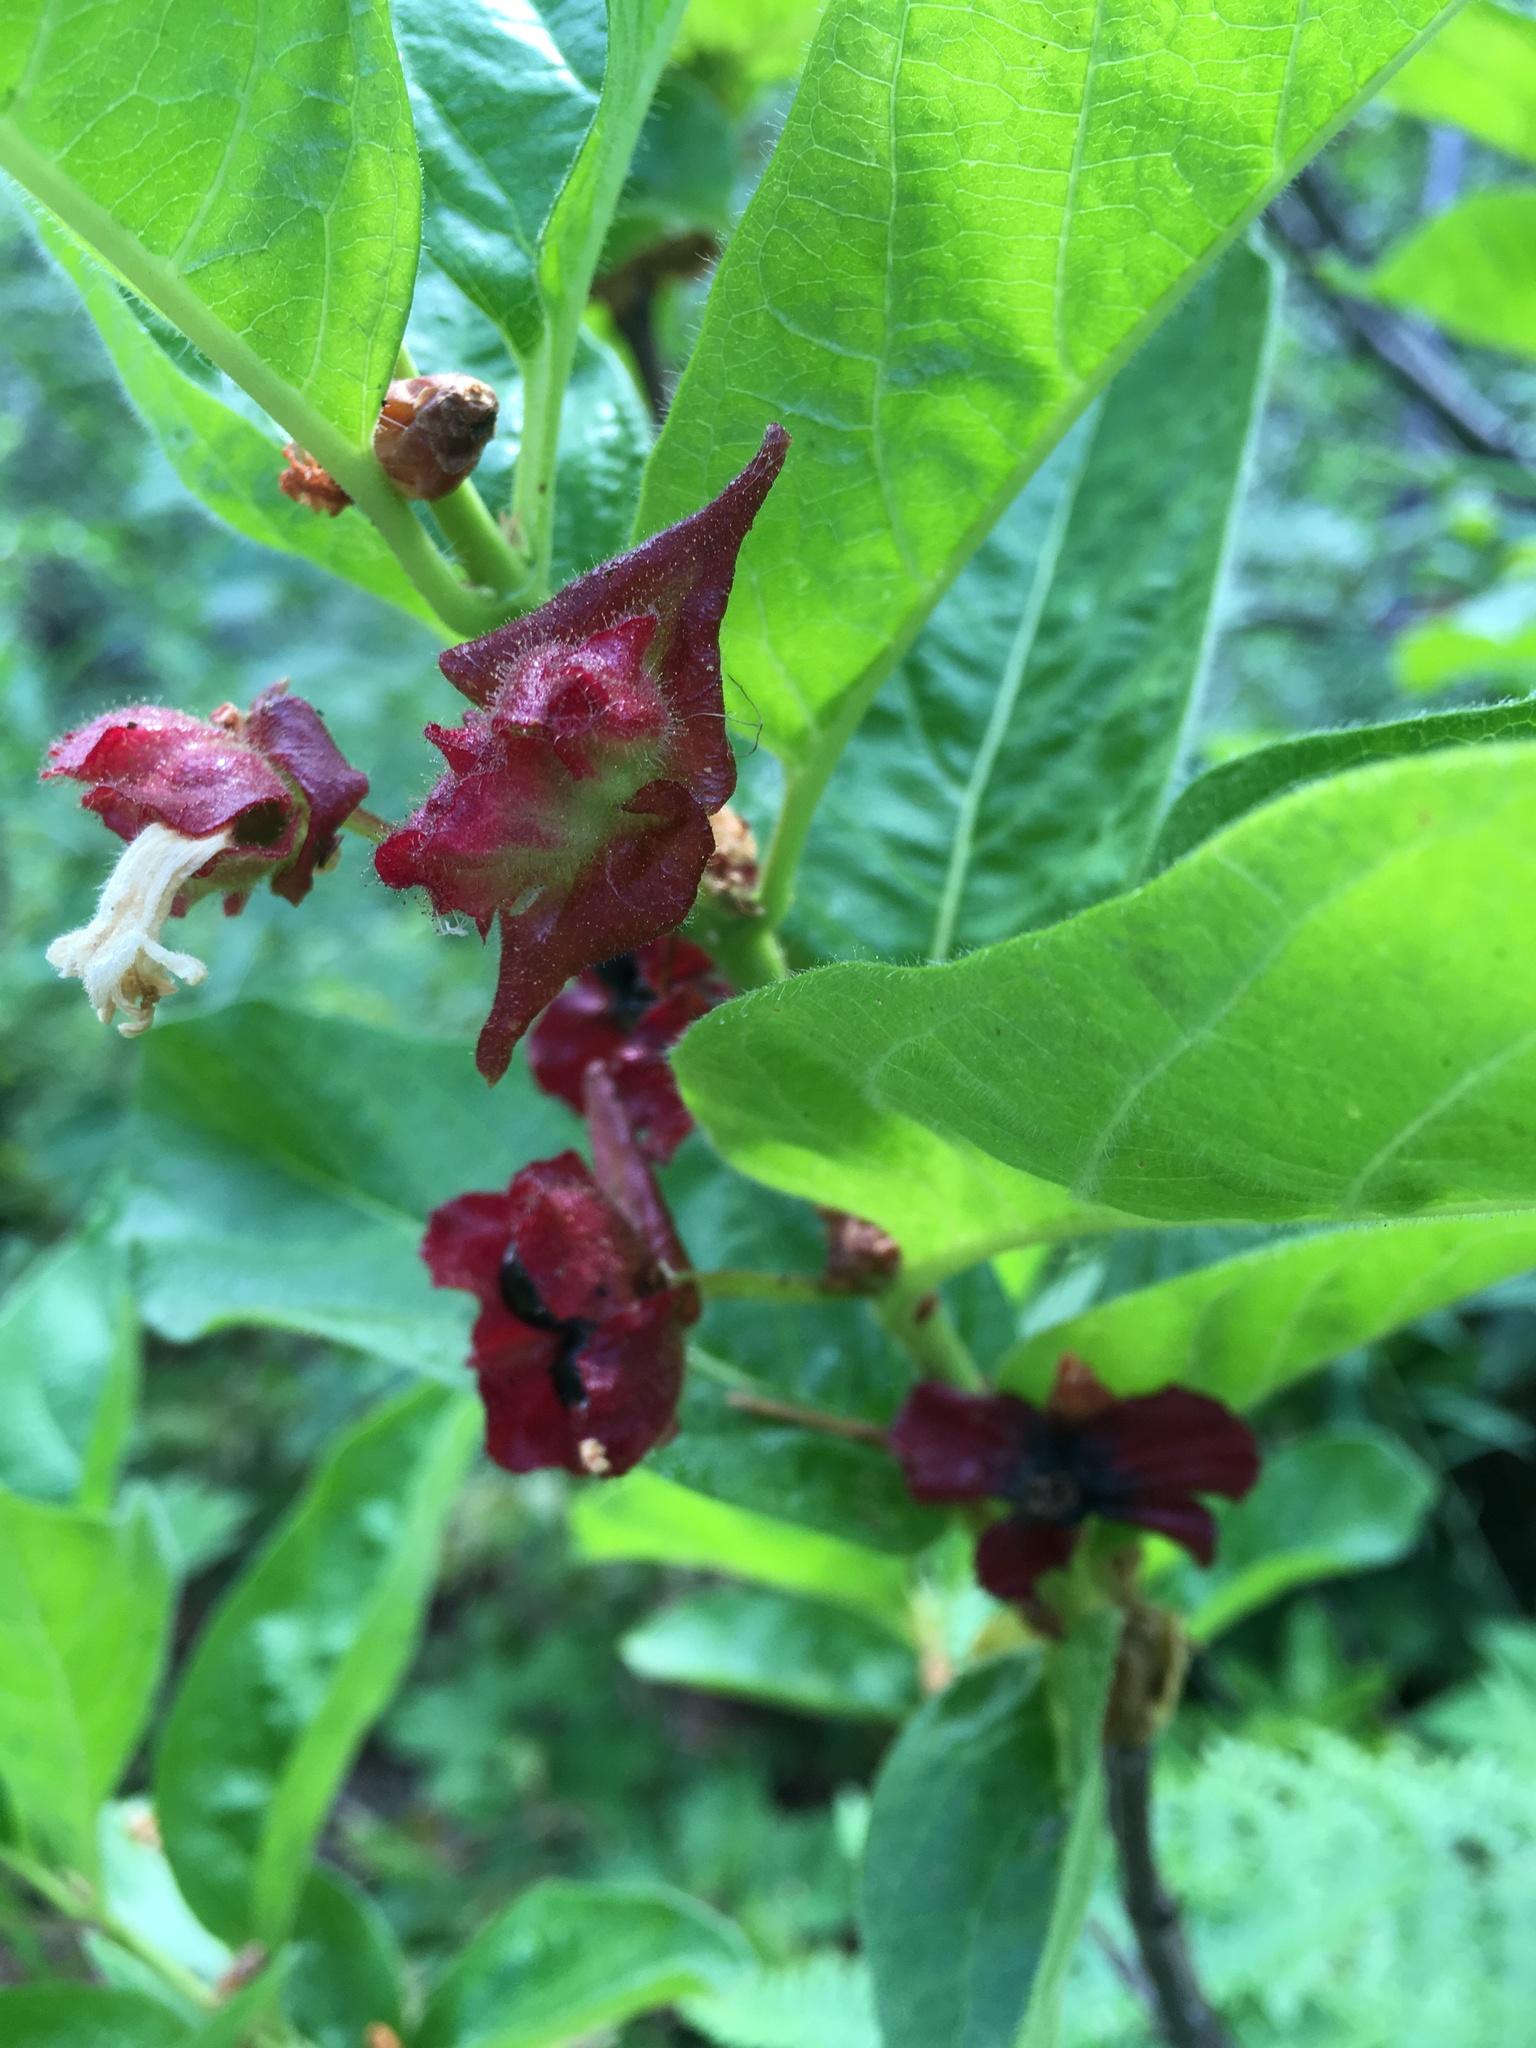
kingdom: Plantae
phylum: Tracheophyta
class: Magnoliopsida
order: Dipsacales
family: Caprifoliaceae
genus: Lonicera
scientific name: Lonicera involucrata
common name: Californian honeysuckle
